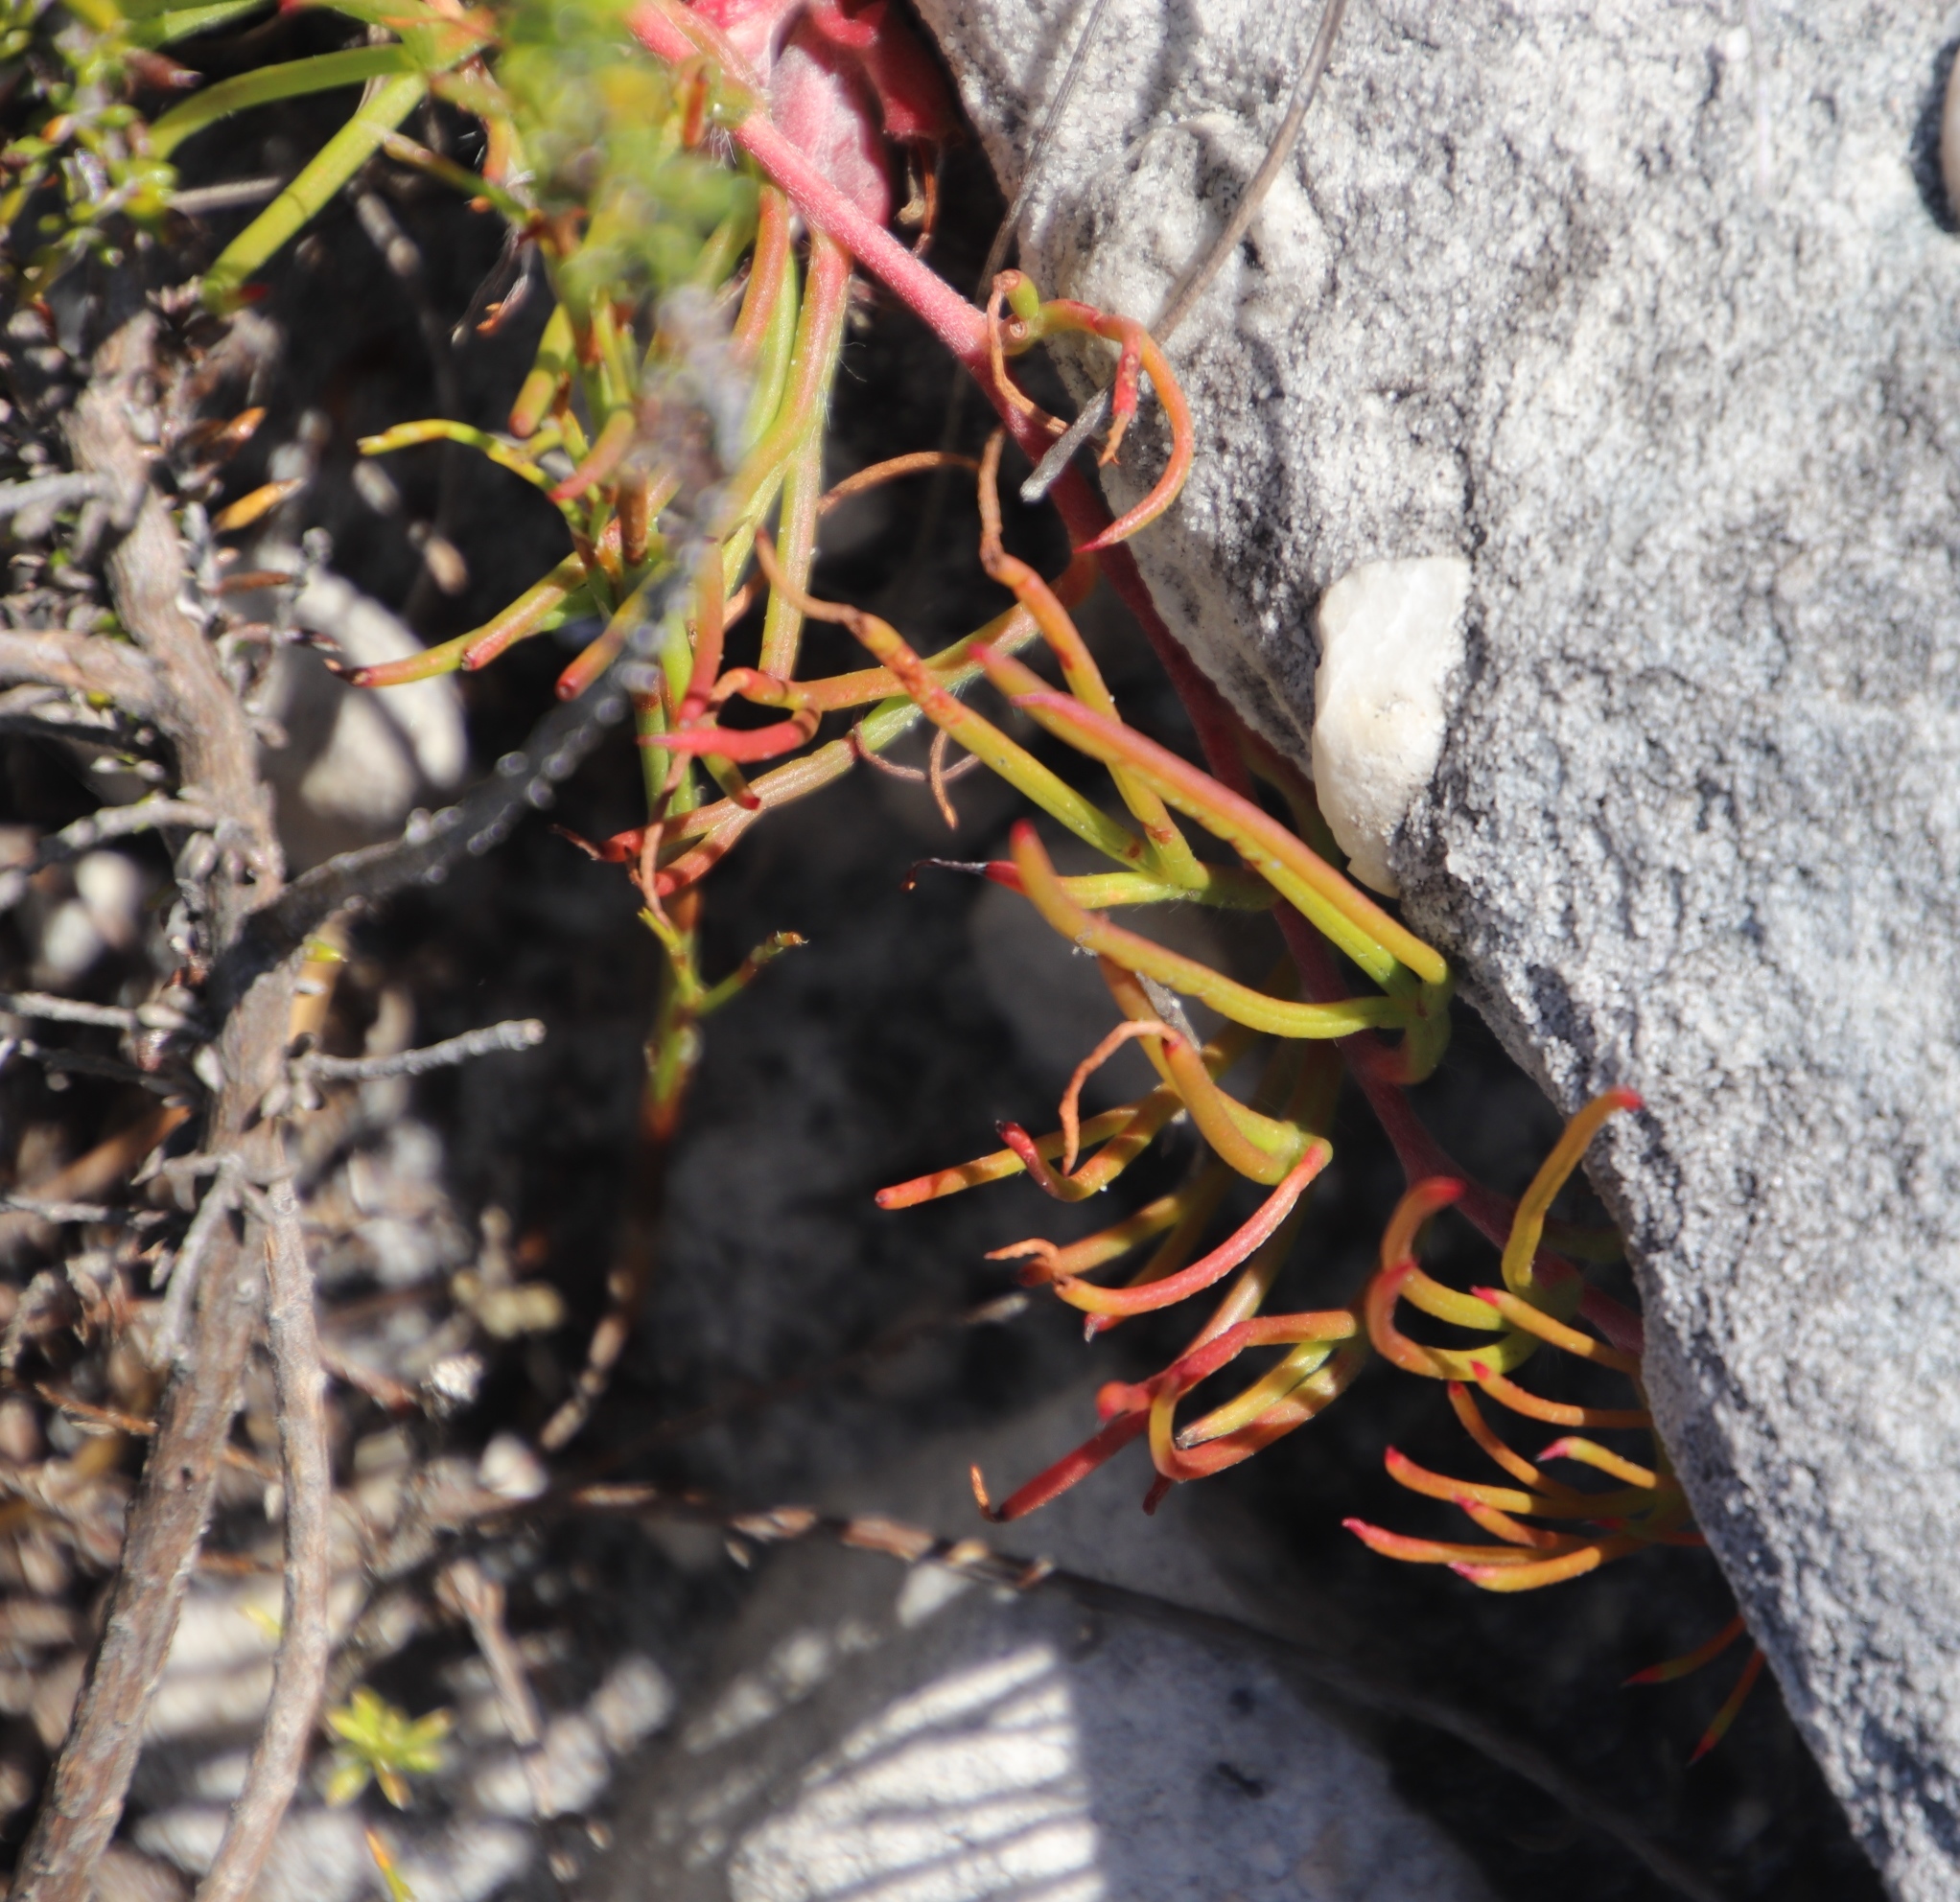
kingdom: Plantae
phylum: Tracheophyta
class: Magnoliopsida
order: Proteales
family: Proteaceae
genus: Serruria
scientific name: Serruria decumbens
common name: Peninsula spiderhead
